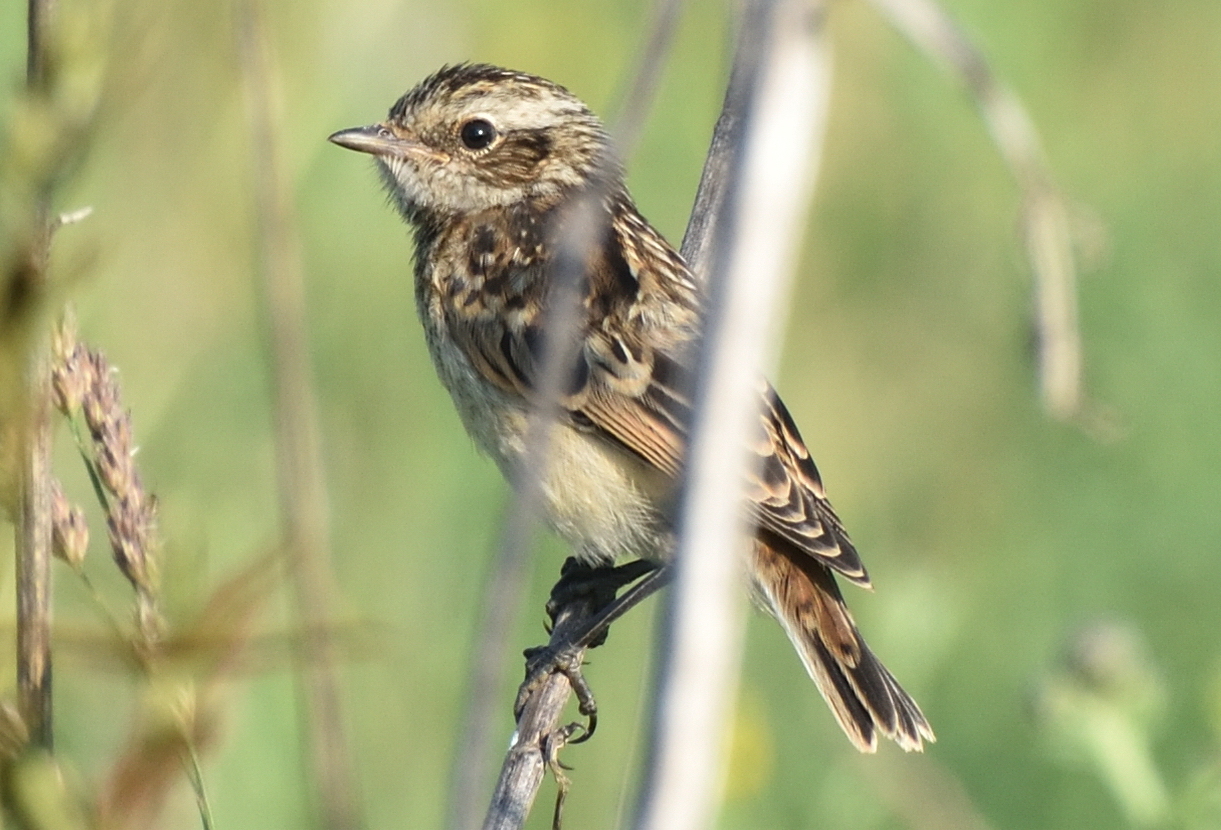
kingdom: Animalia
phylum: Chordata
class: Aves
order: Passeriformes
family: Muscicapidae
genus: Saxicola
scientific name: Saxicola rubetra
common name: Whinchat
